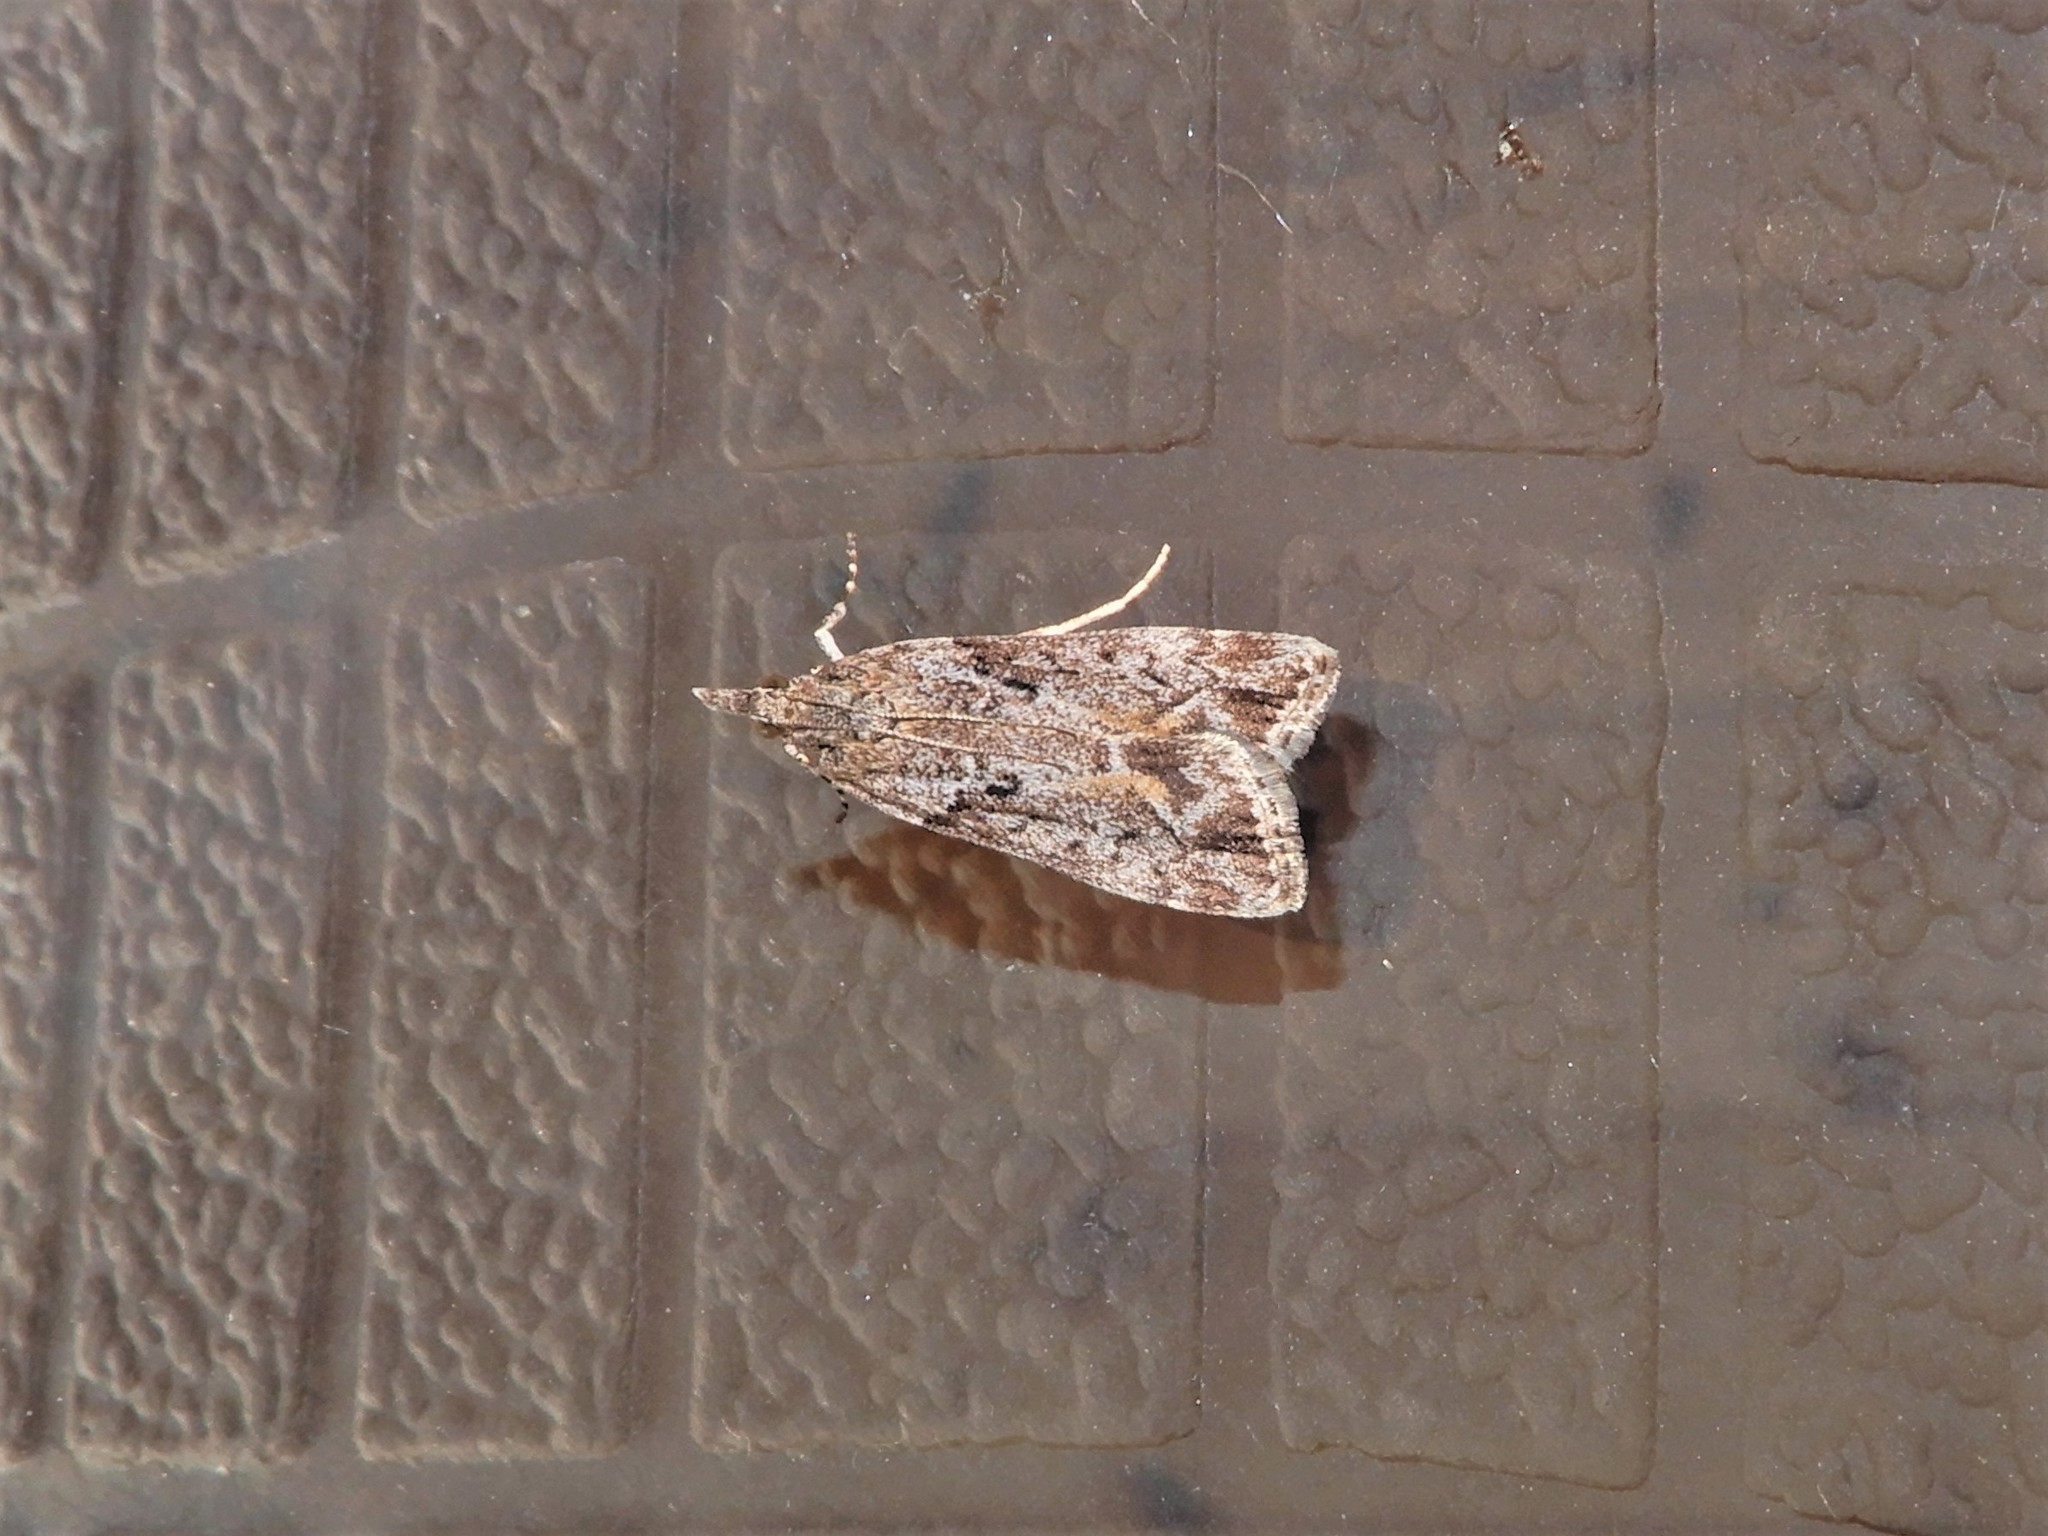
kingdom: Animalia
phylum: Arthropoda
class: Insecta
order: Lepidoptera
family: Crambidae
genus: Eudonia
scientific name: Eudonia submarginalis
